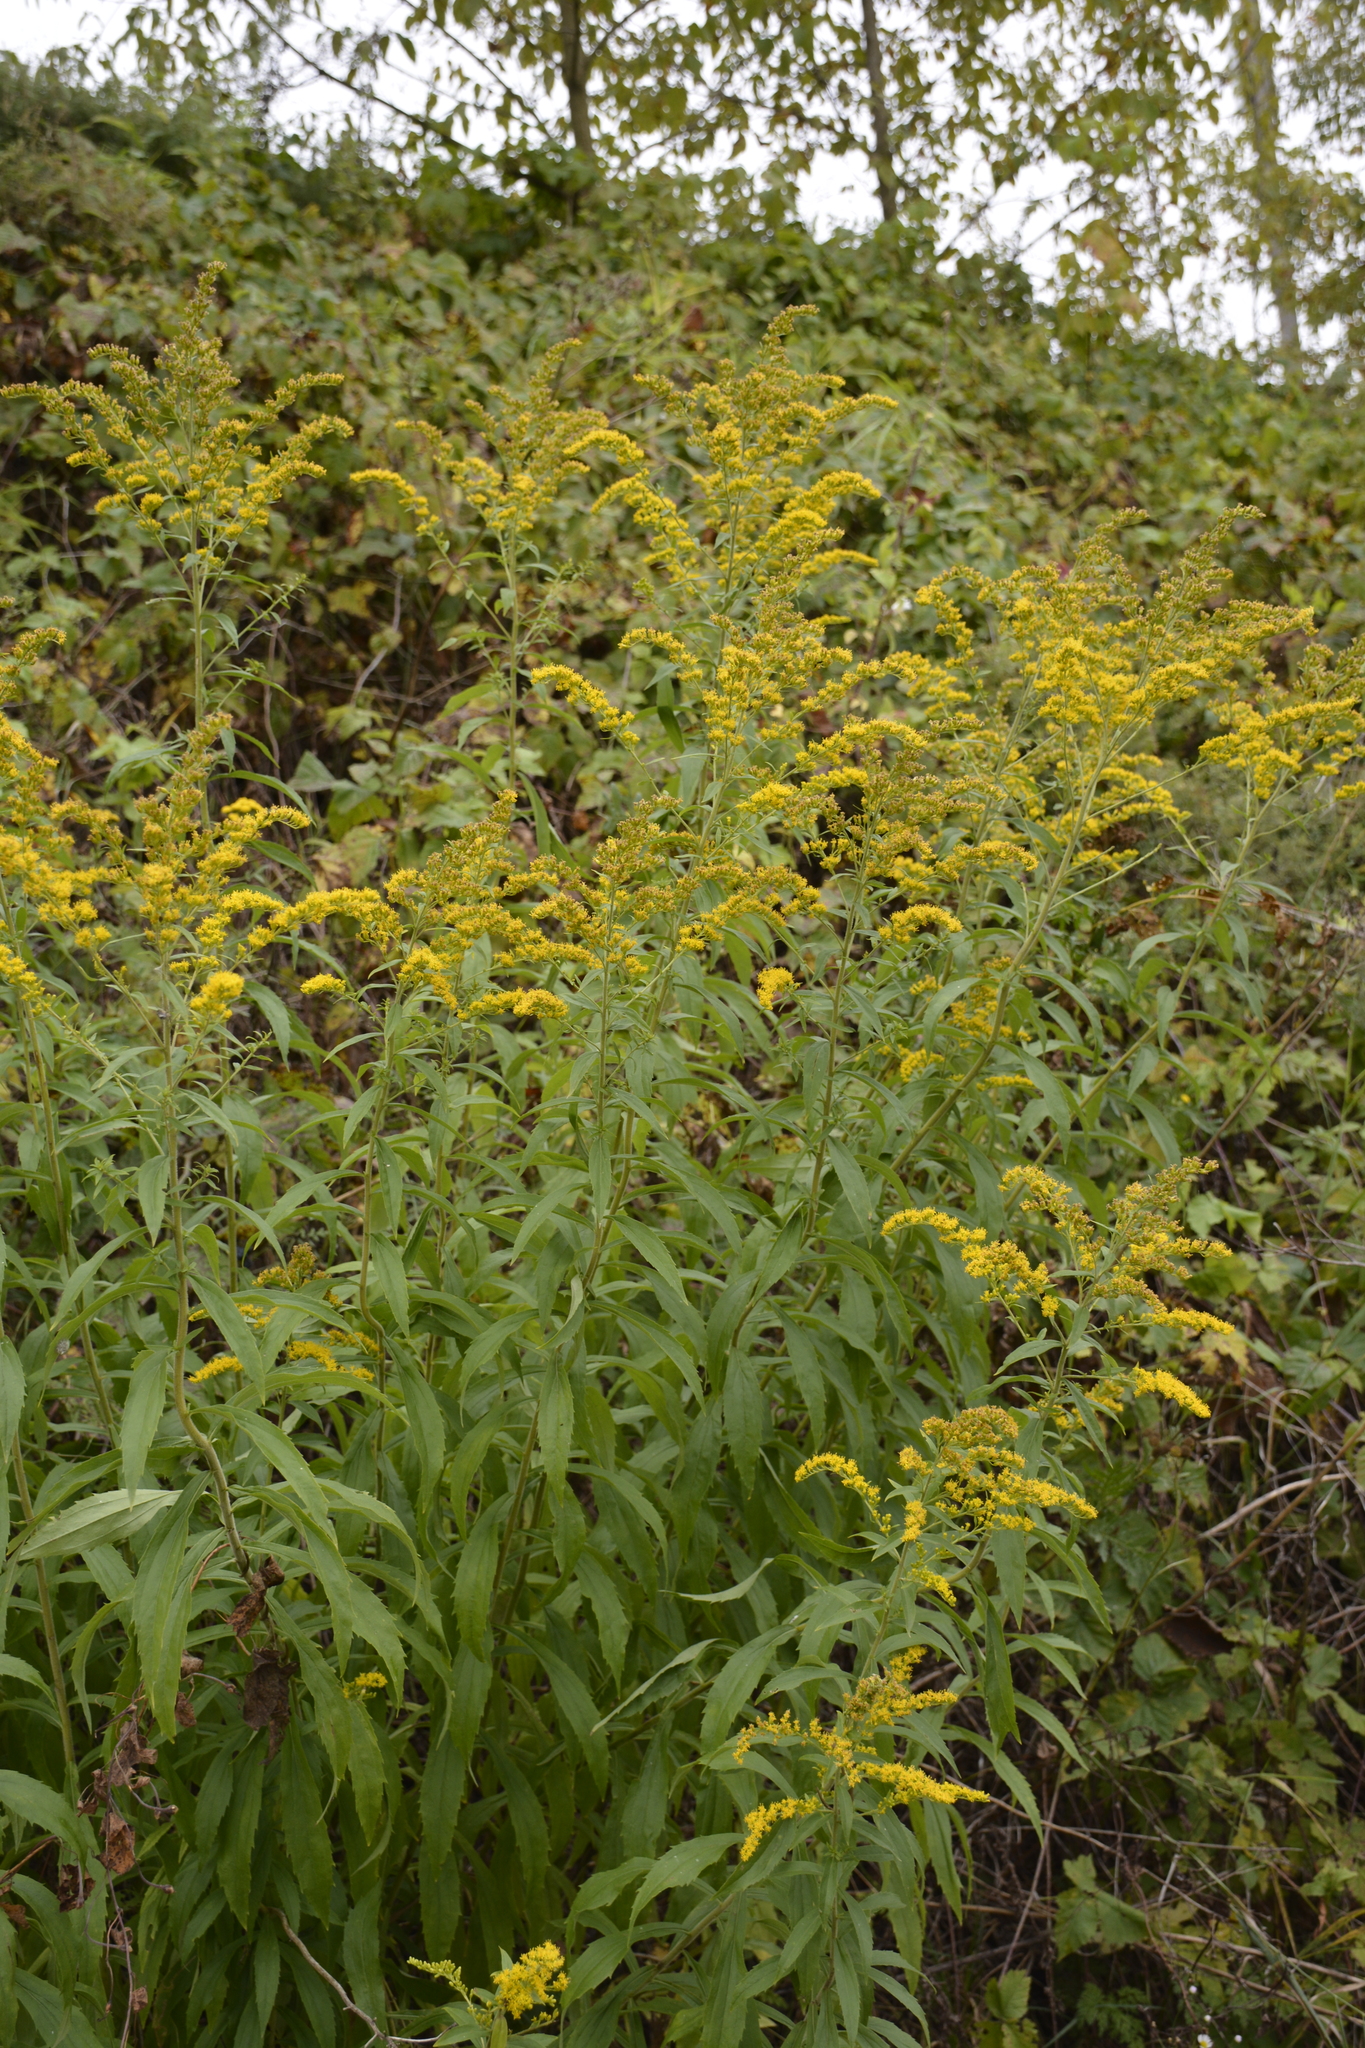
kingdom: Plantae
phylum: Tracheophyta
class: Magnoliopsida
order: Asterales
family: Asteraceae
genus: Solidago
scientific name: Solidago canadensis
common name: Canada goldenrod
